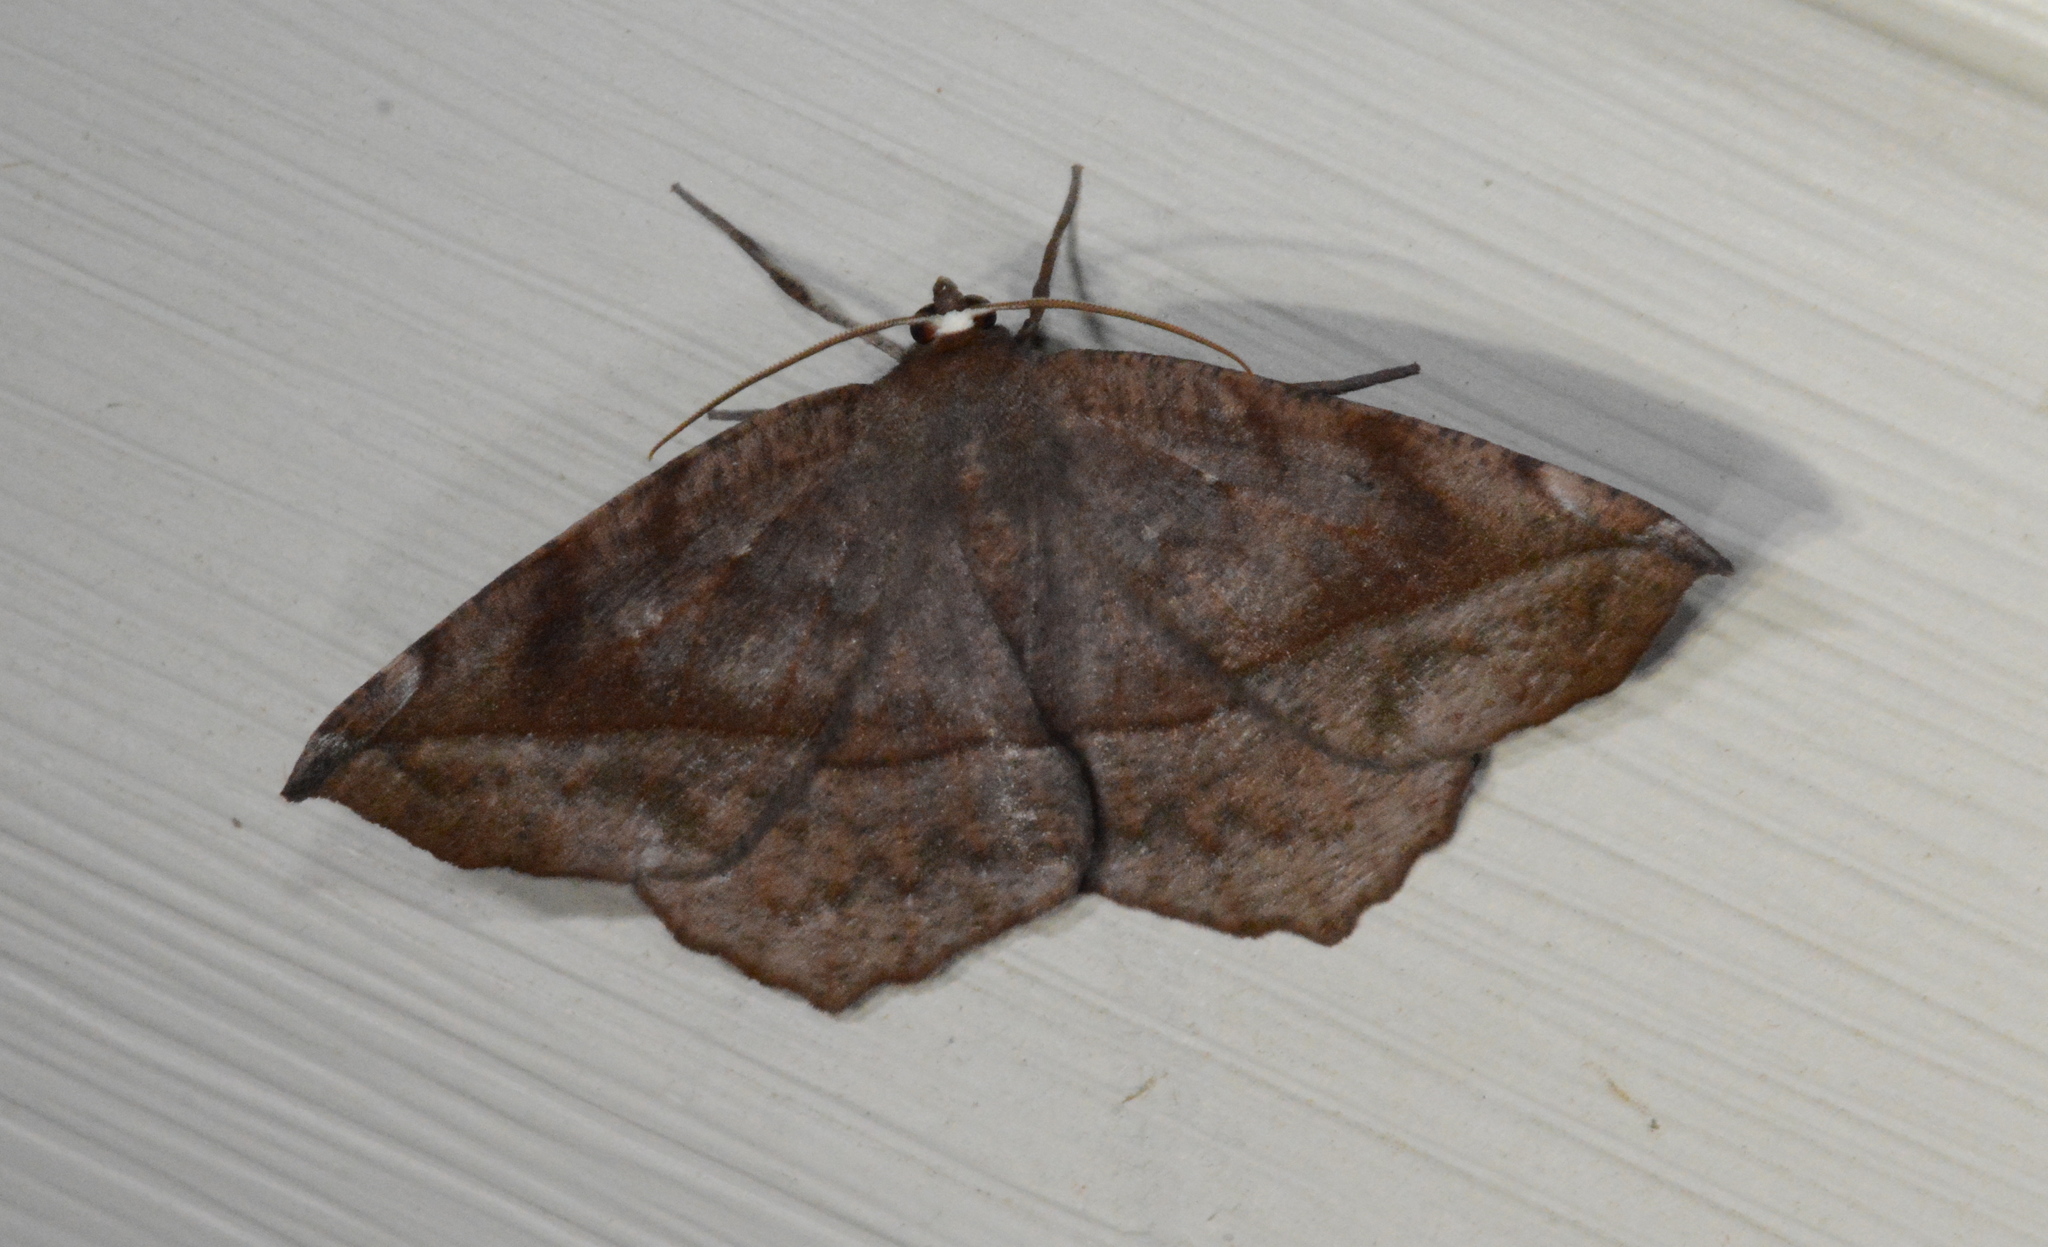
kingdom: Animalia
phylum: Arthropoda
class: Insecta
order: Lepidoptera
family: Geometridae
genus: Eutrapela
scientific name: Eutrapela clemataria
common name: Curved-toothed geometer
